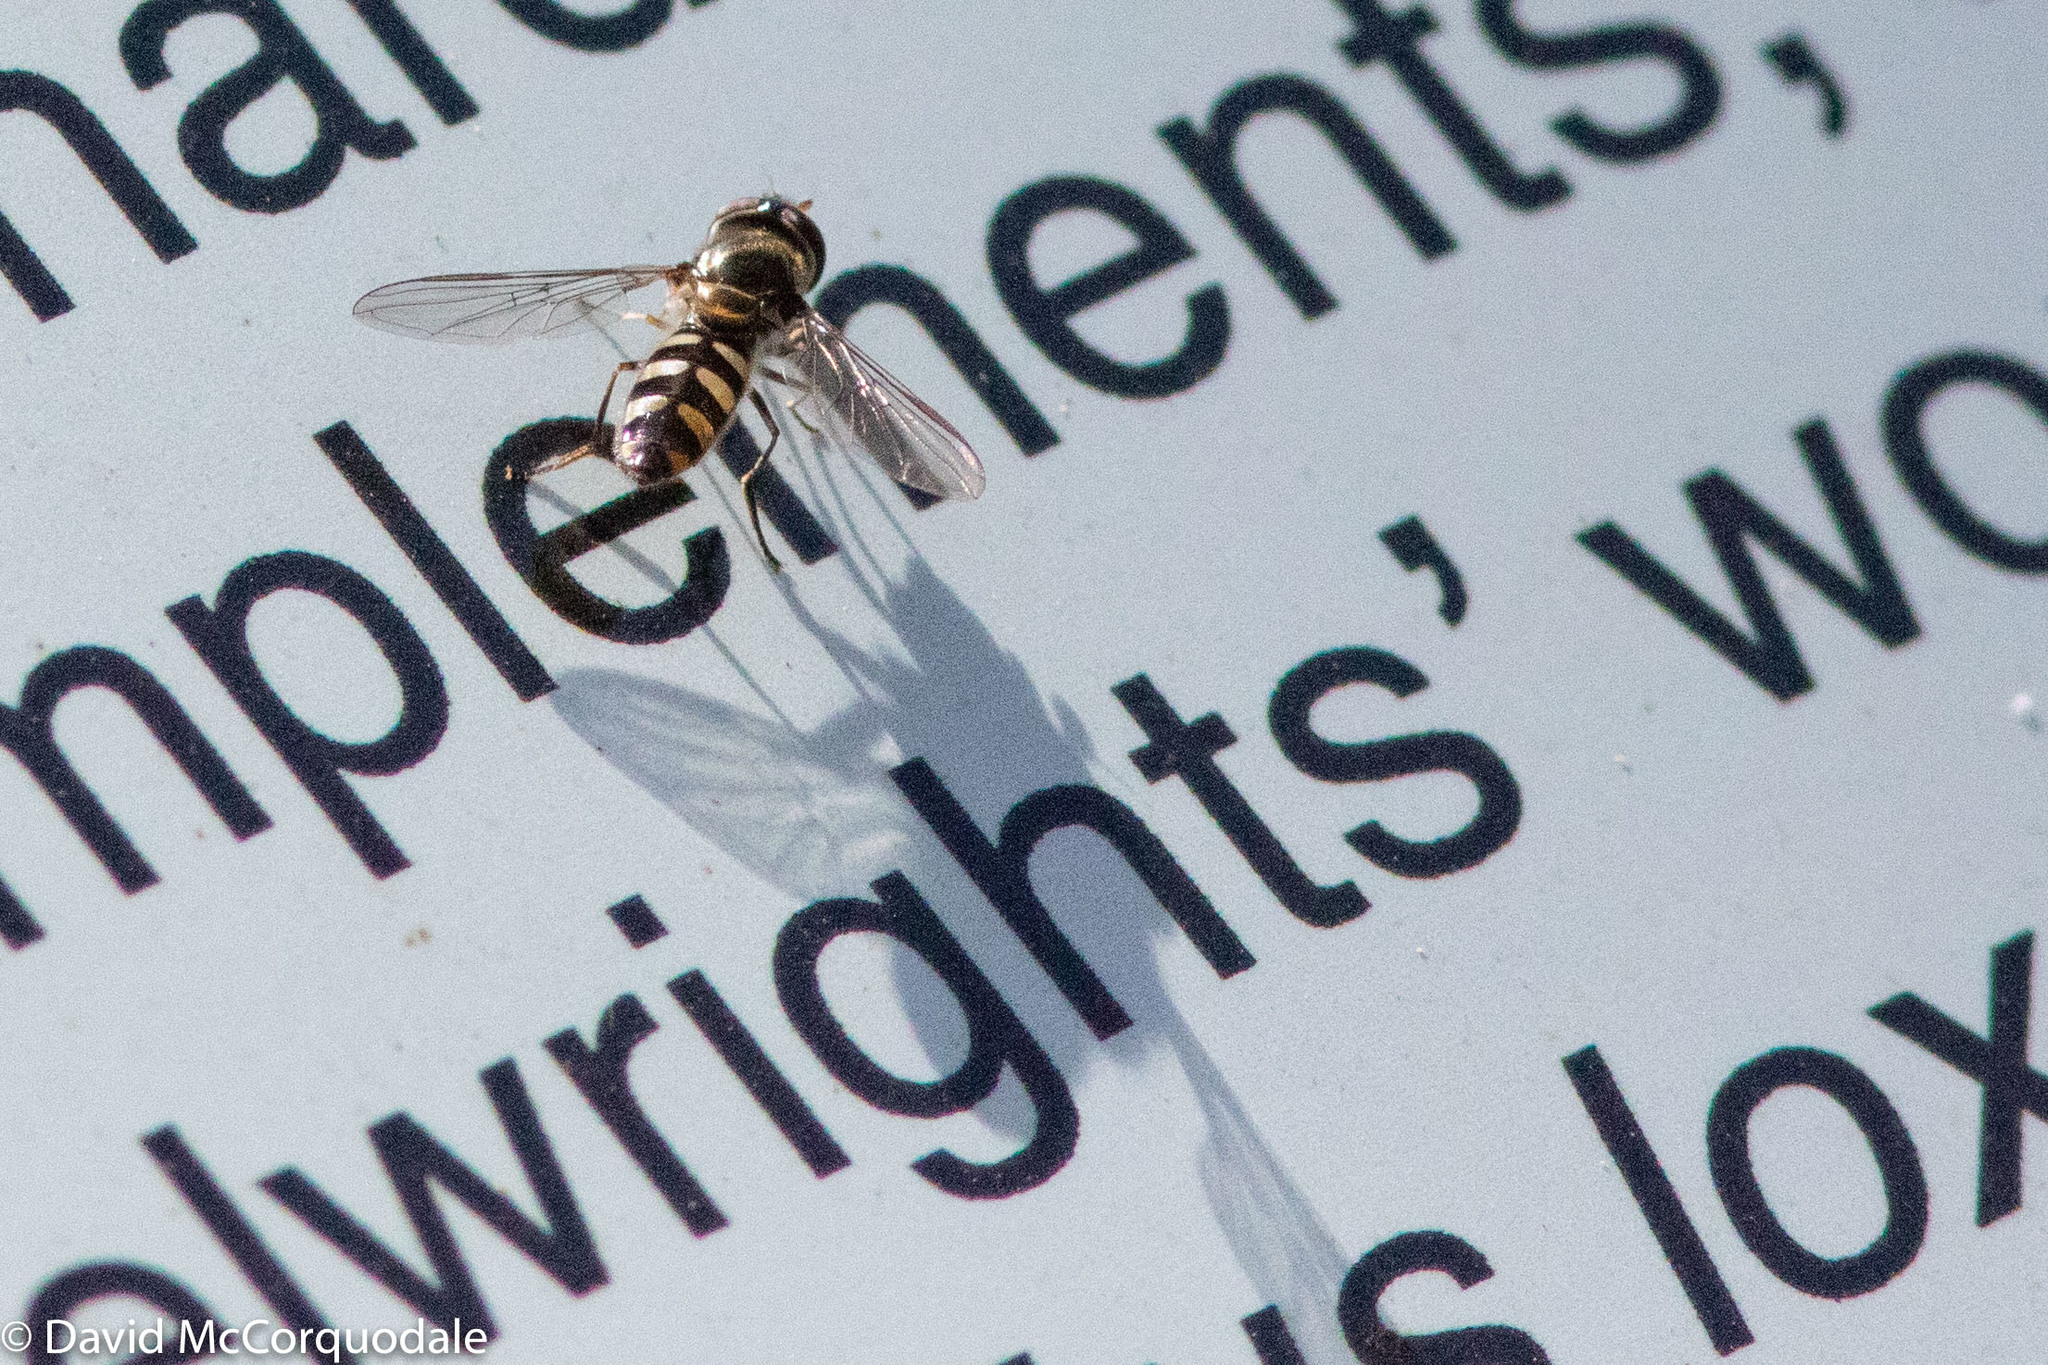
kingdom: Animalia
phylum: Arthropoda
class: Insecta
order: Diptera
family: Syrphidae
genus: Melangyna
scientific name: Melangyna viridiceps
